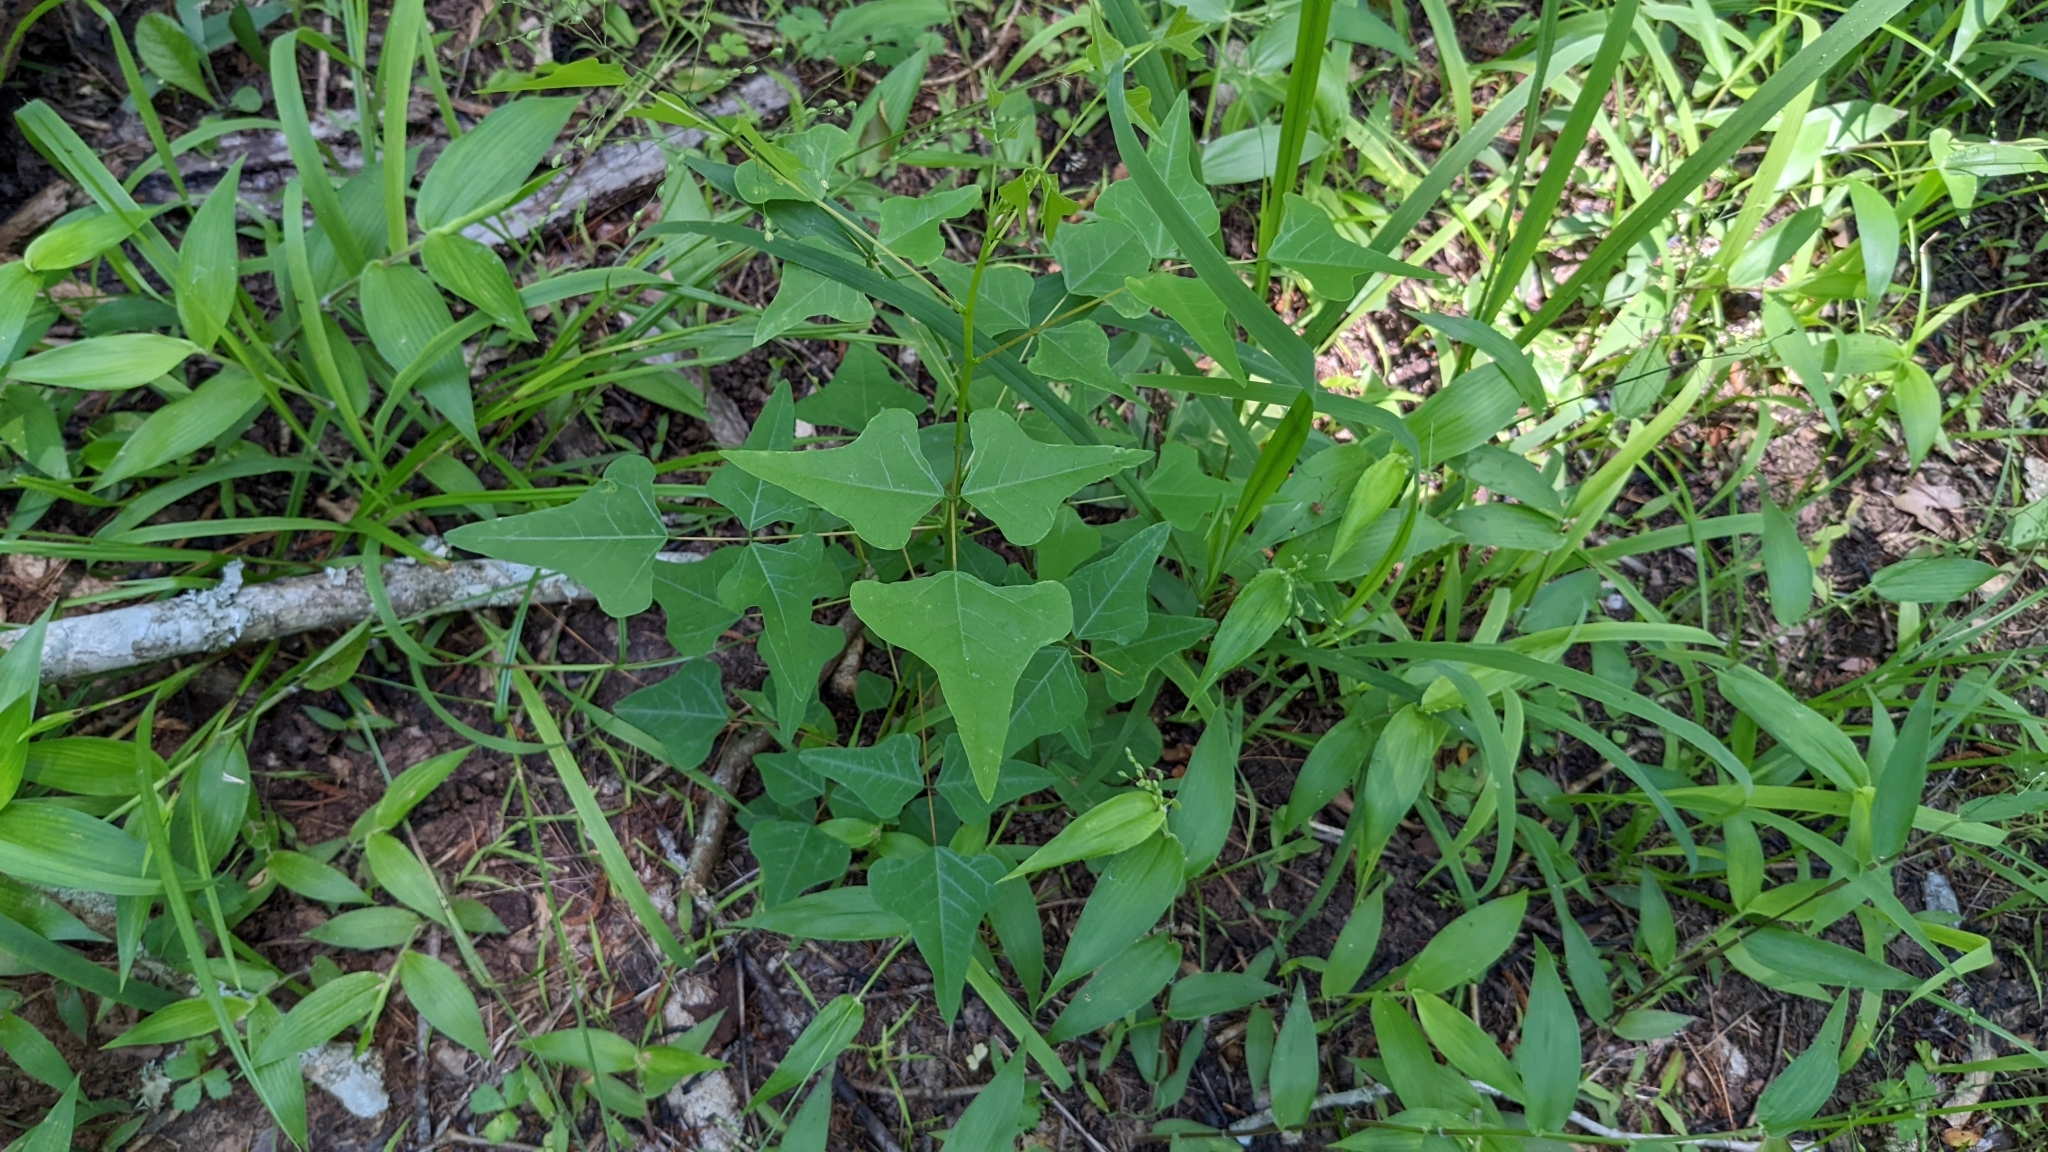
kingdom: Plantae
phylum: Tracheophyta
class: Magnoliopsida
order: Fabales
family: Fabaceae
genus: Erythrina
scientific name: Erythrina herbacea
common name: Coral-bean
